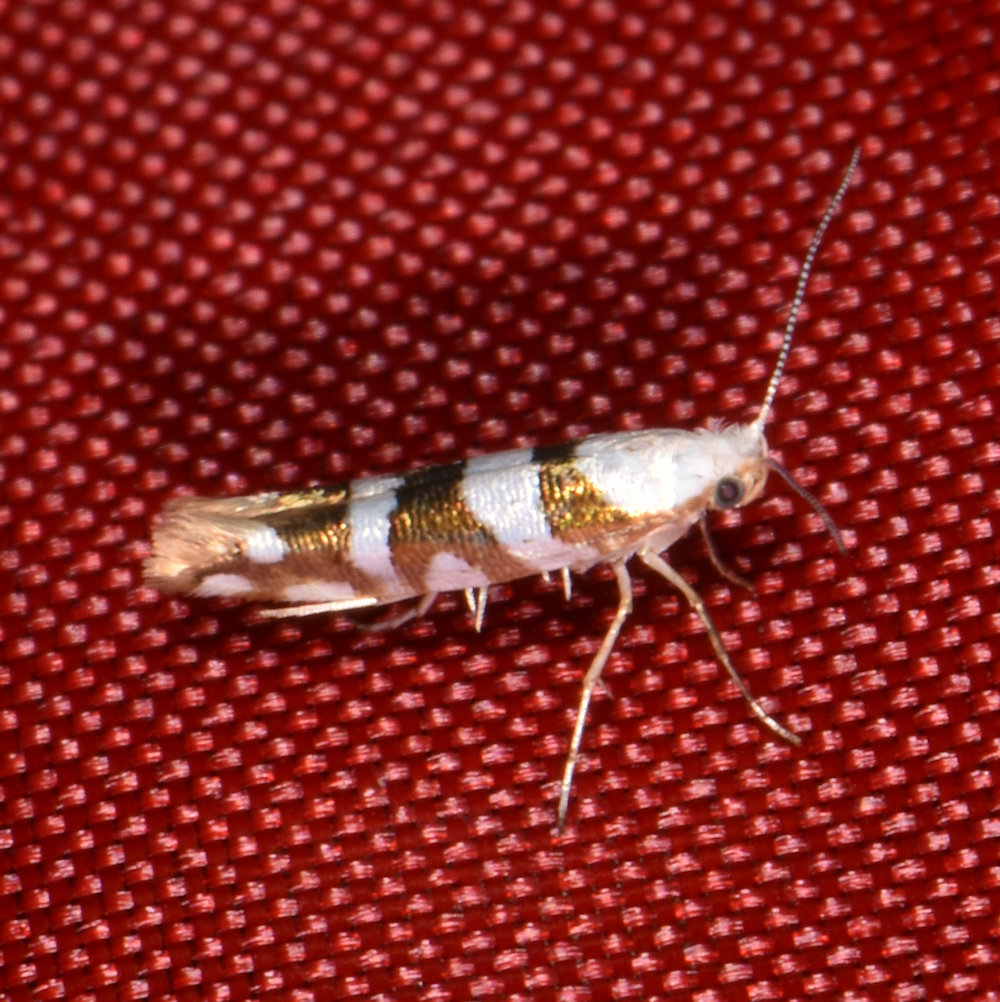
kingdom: Animalia
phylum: Arthropoda
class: Insecta
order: Lepidoptera
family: Argyresthiidae
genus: Argyresthia
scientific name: Argyresthia calliphanes
